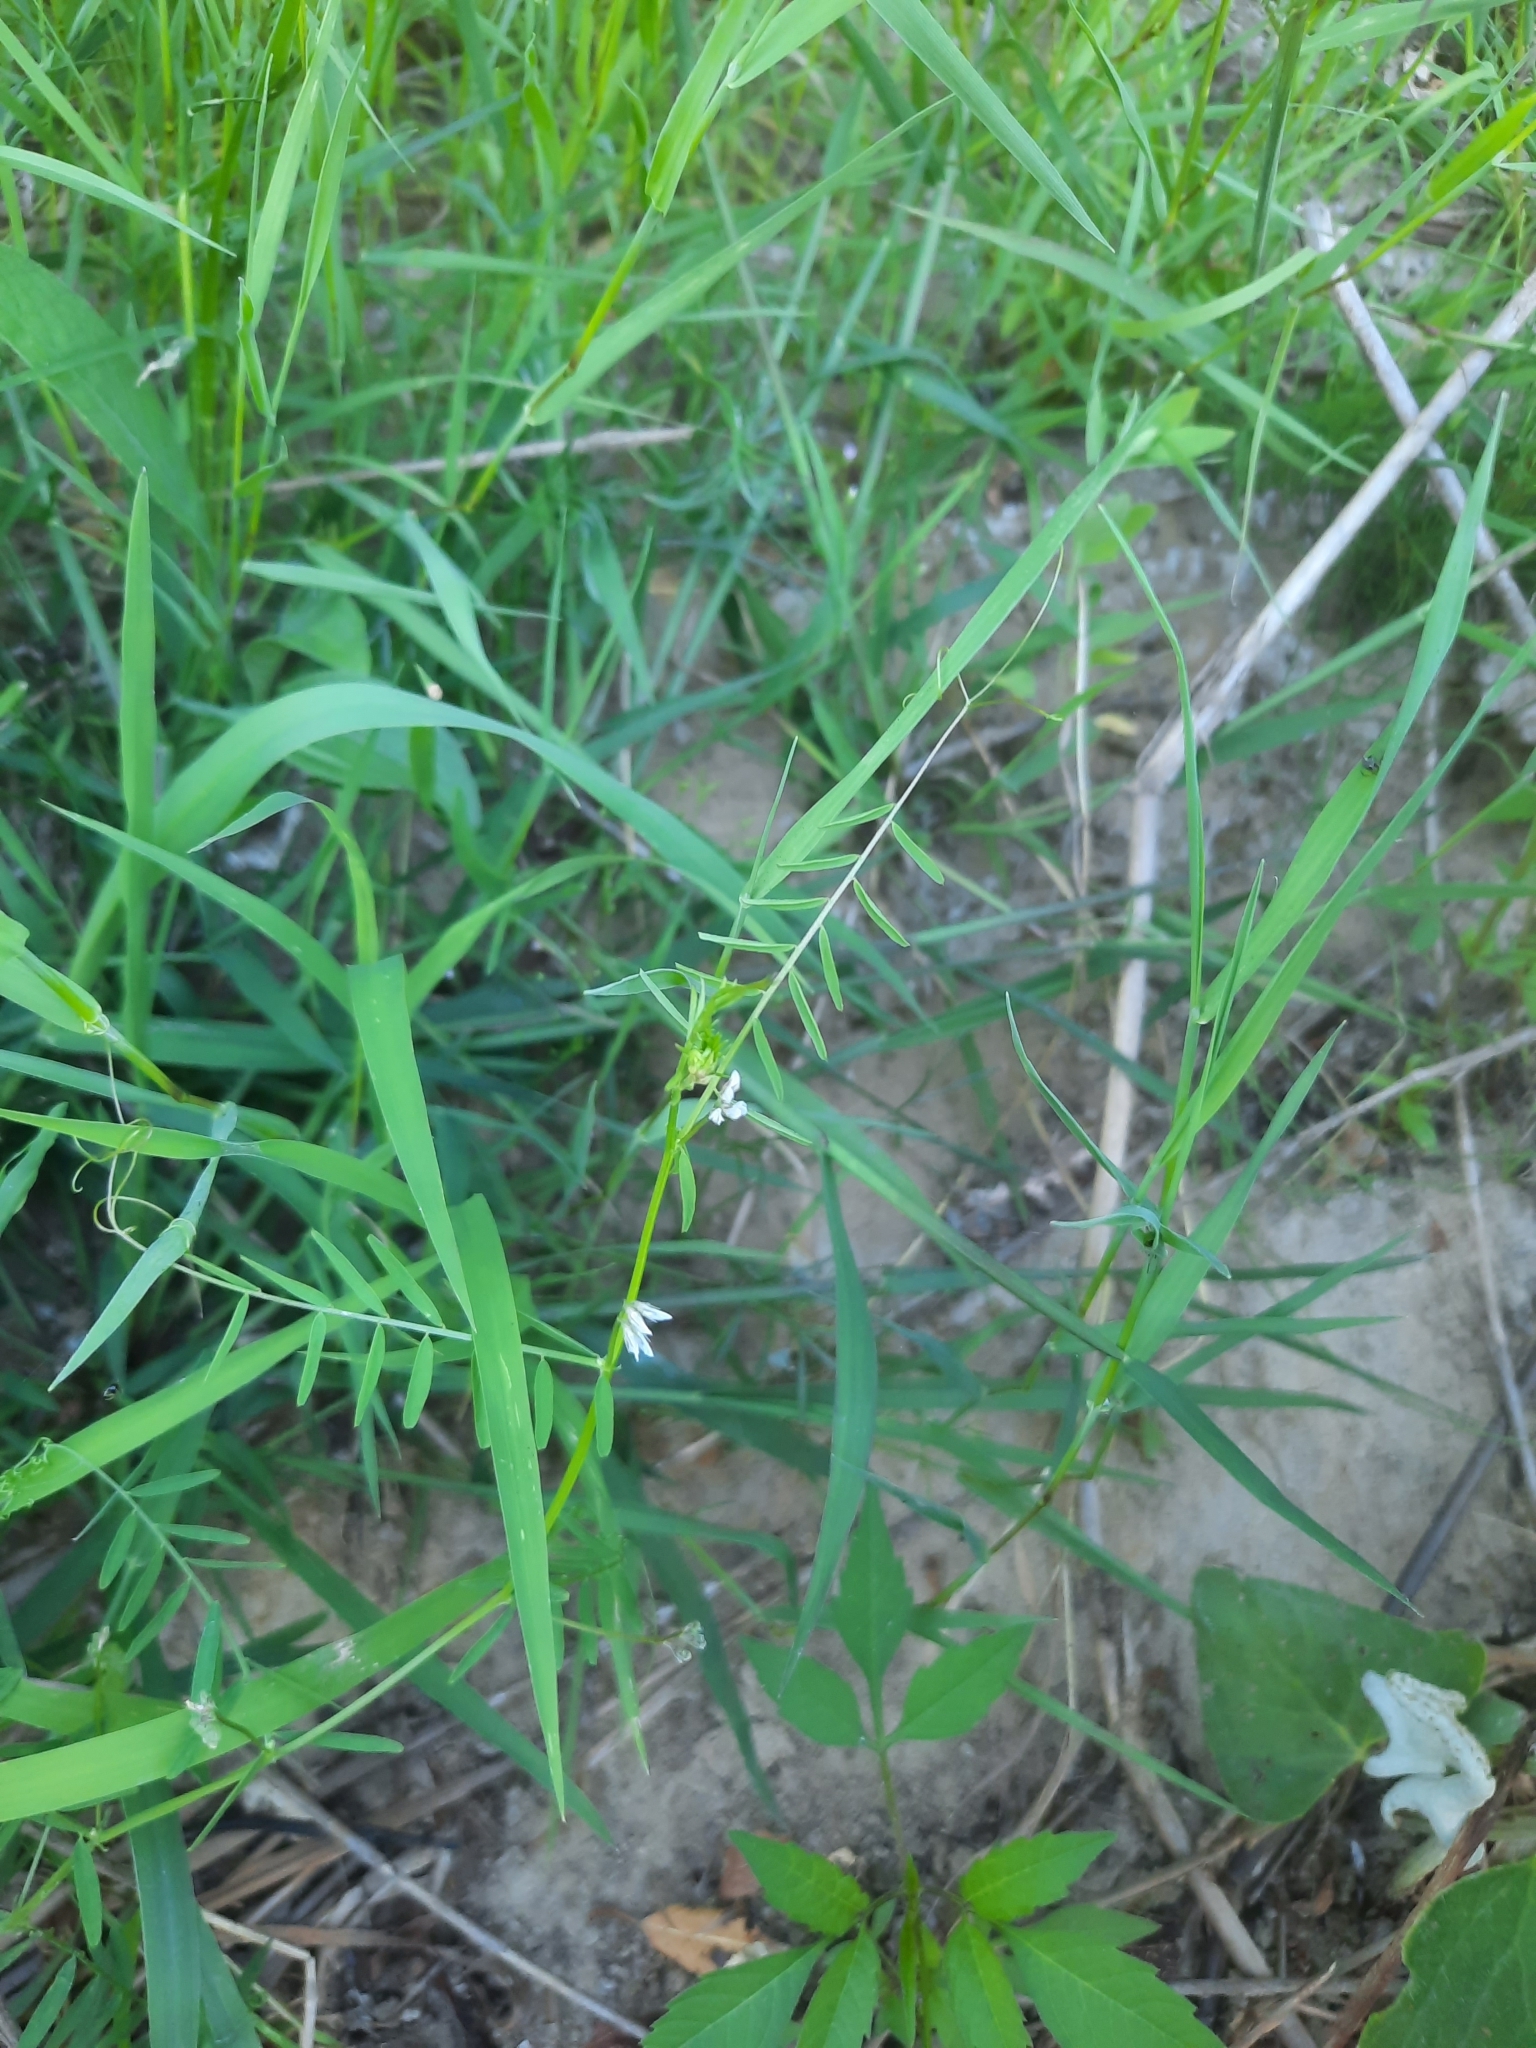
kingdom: Plantae
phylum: Tracheophyta
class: Magnoliopsida
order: Fabales
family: Fabaceae
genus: Vicia
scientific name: Vicia hirsuta
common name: Tiny vetch
